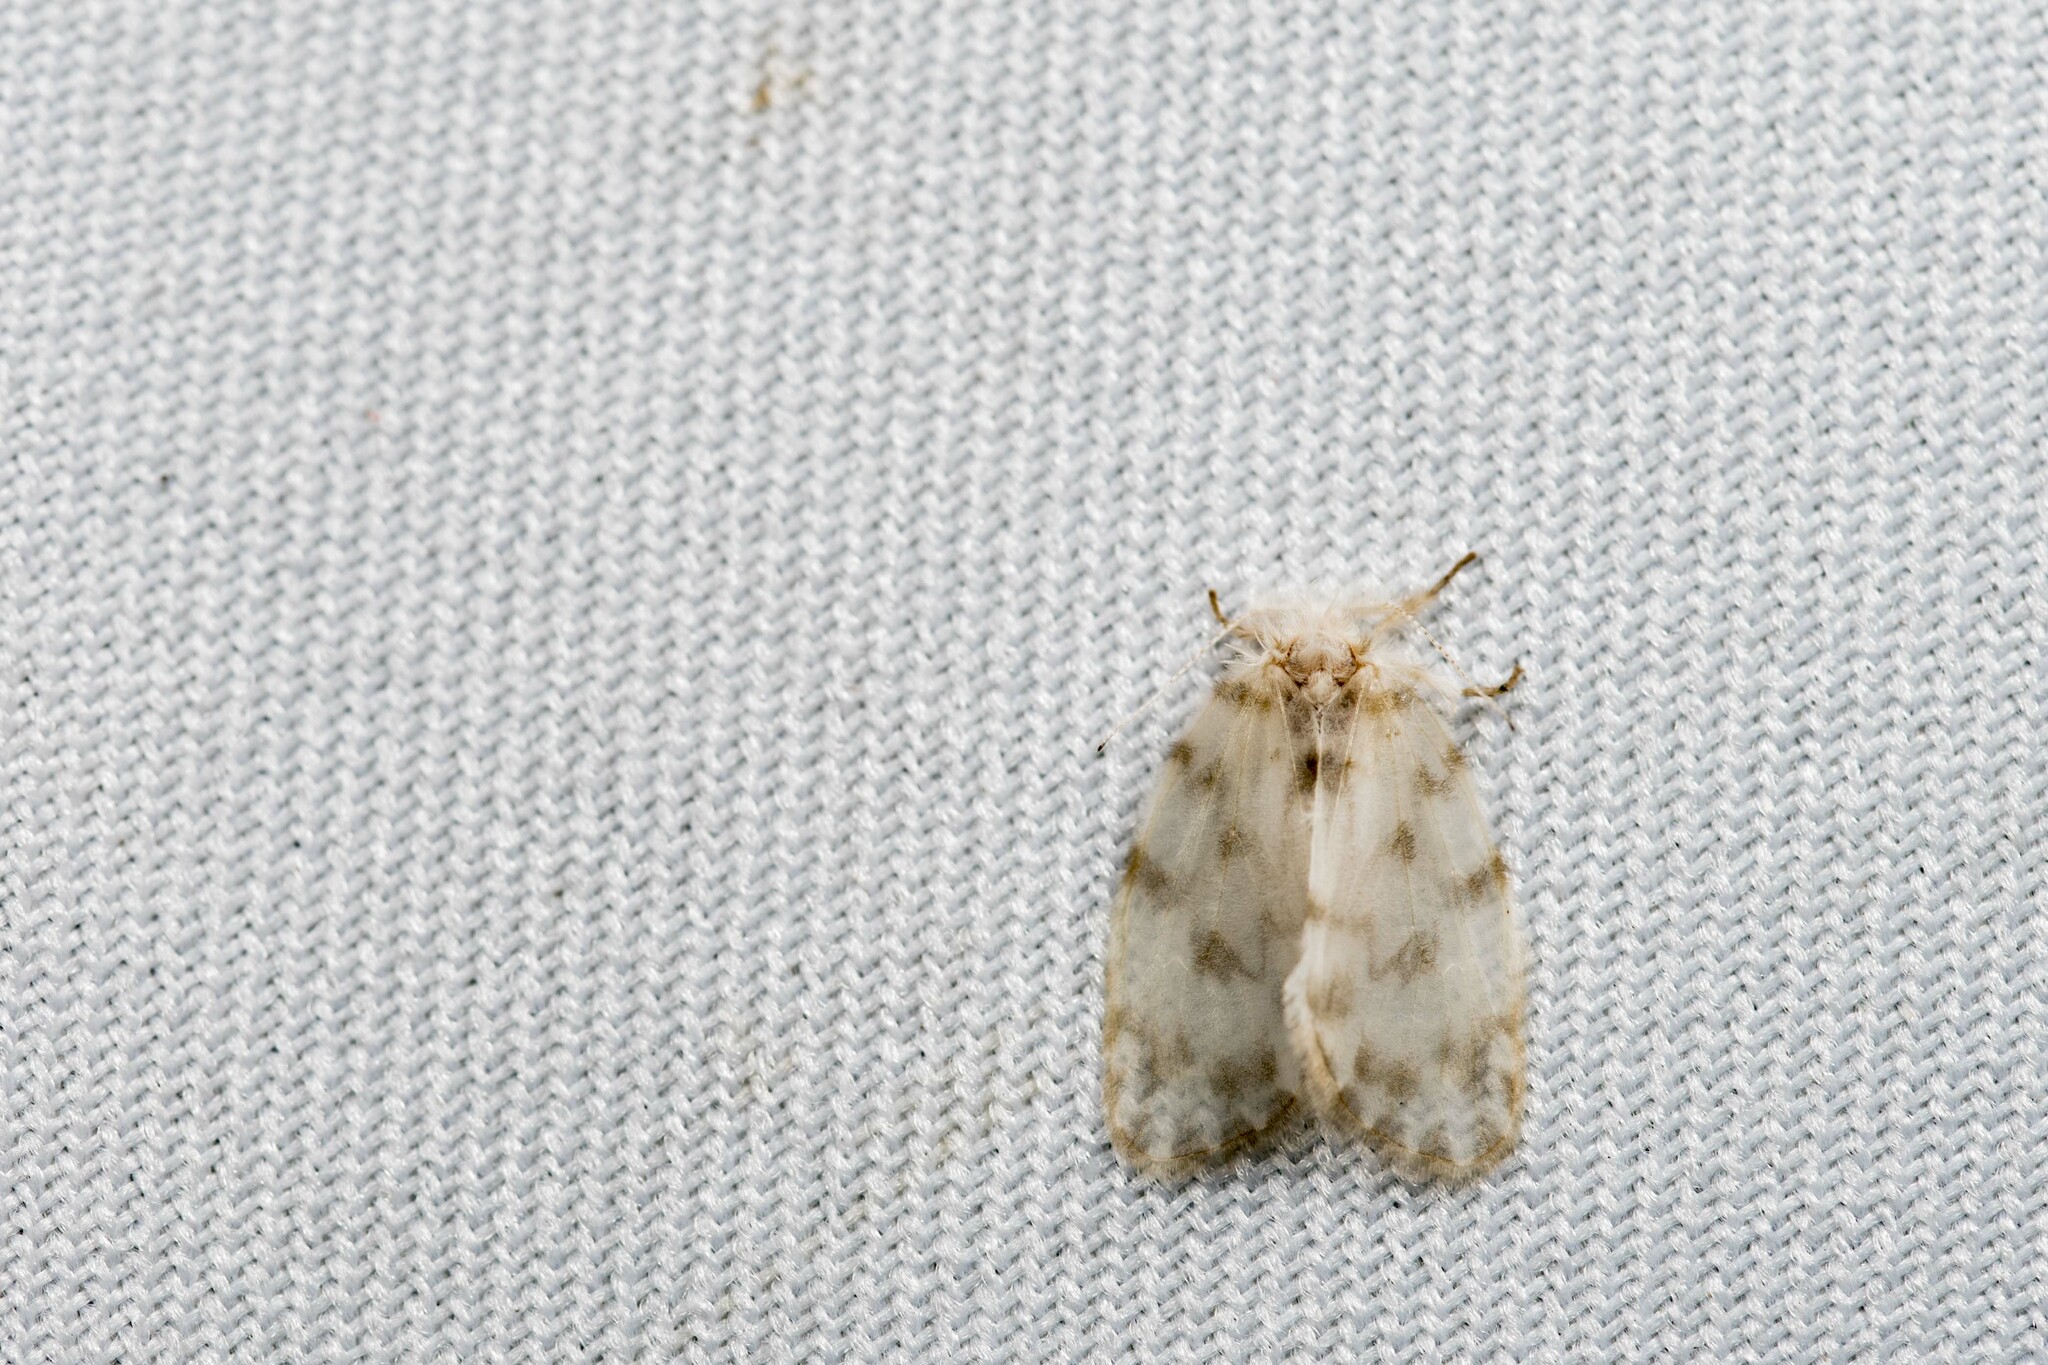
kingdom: Animalia
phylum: Arthropoda
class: Insecta
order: Lepidoptera
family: Erebidae
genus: Chamaita
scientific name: Chamaita hirta
